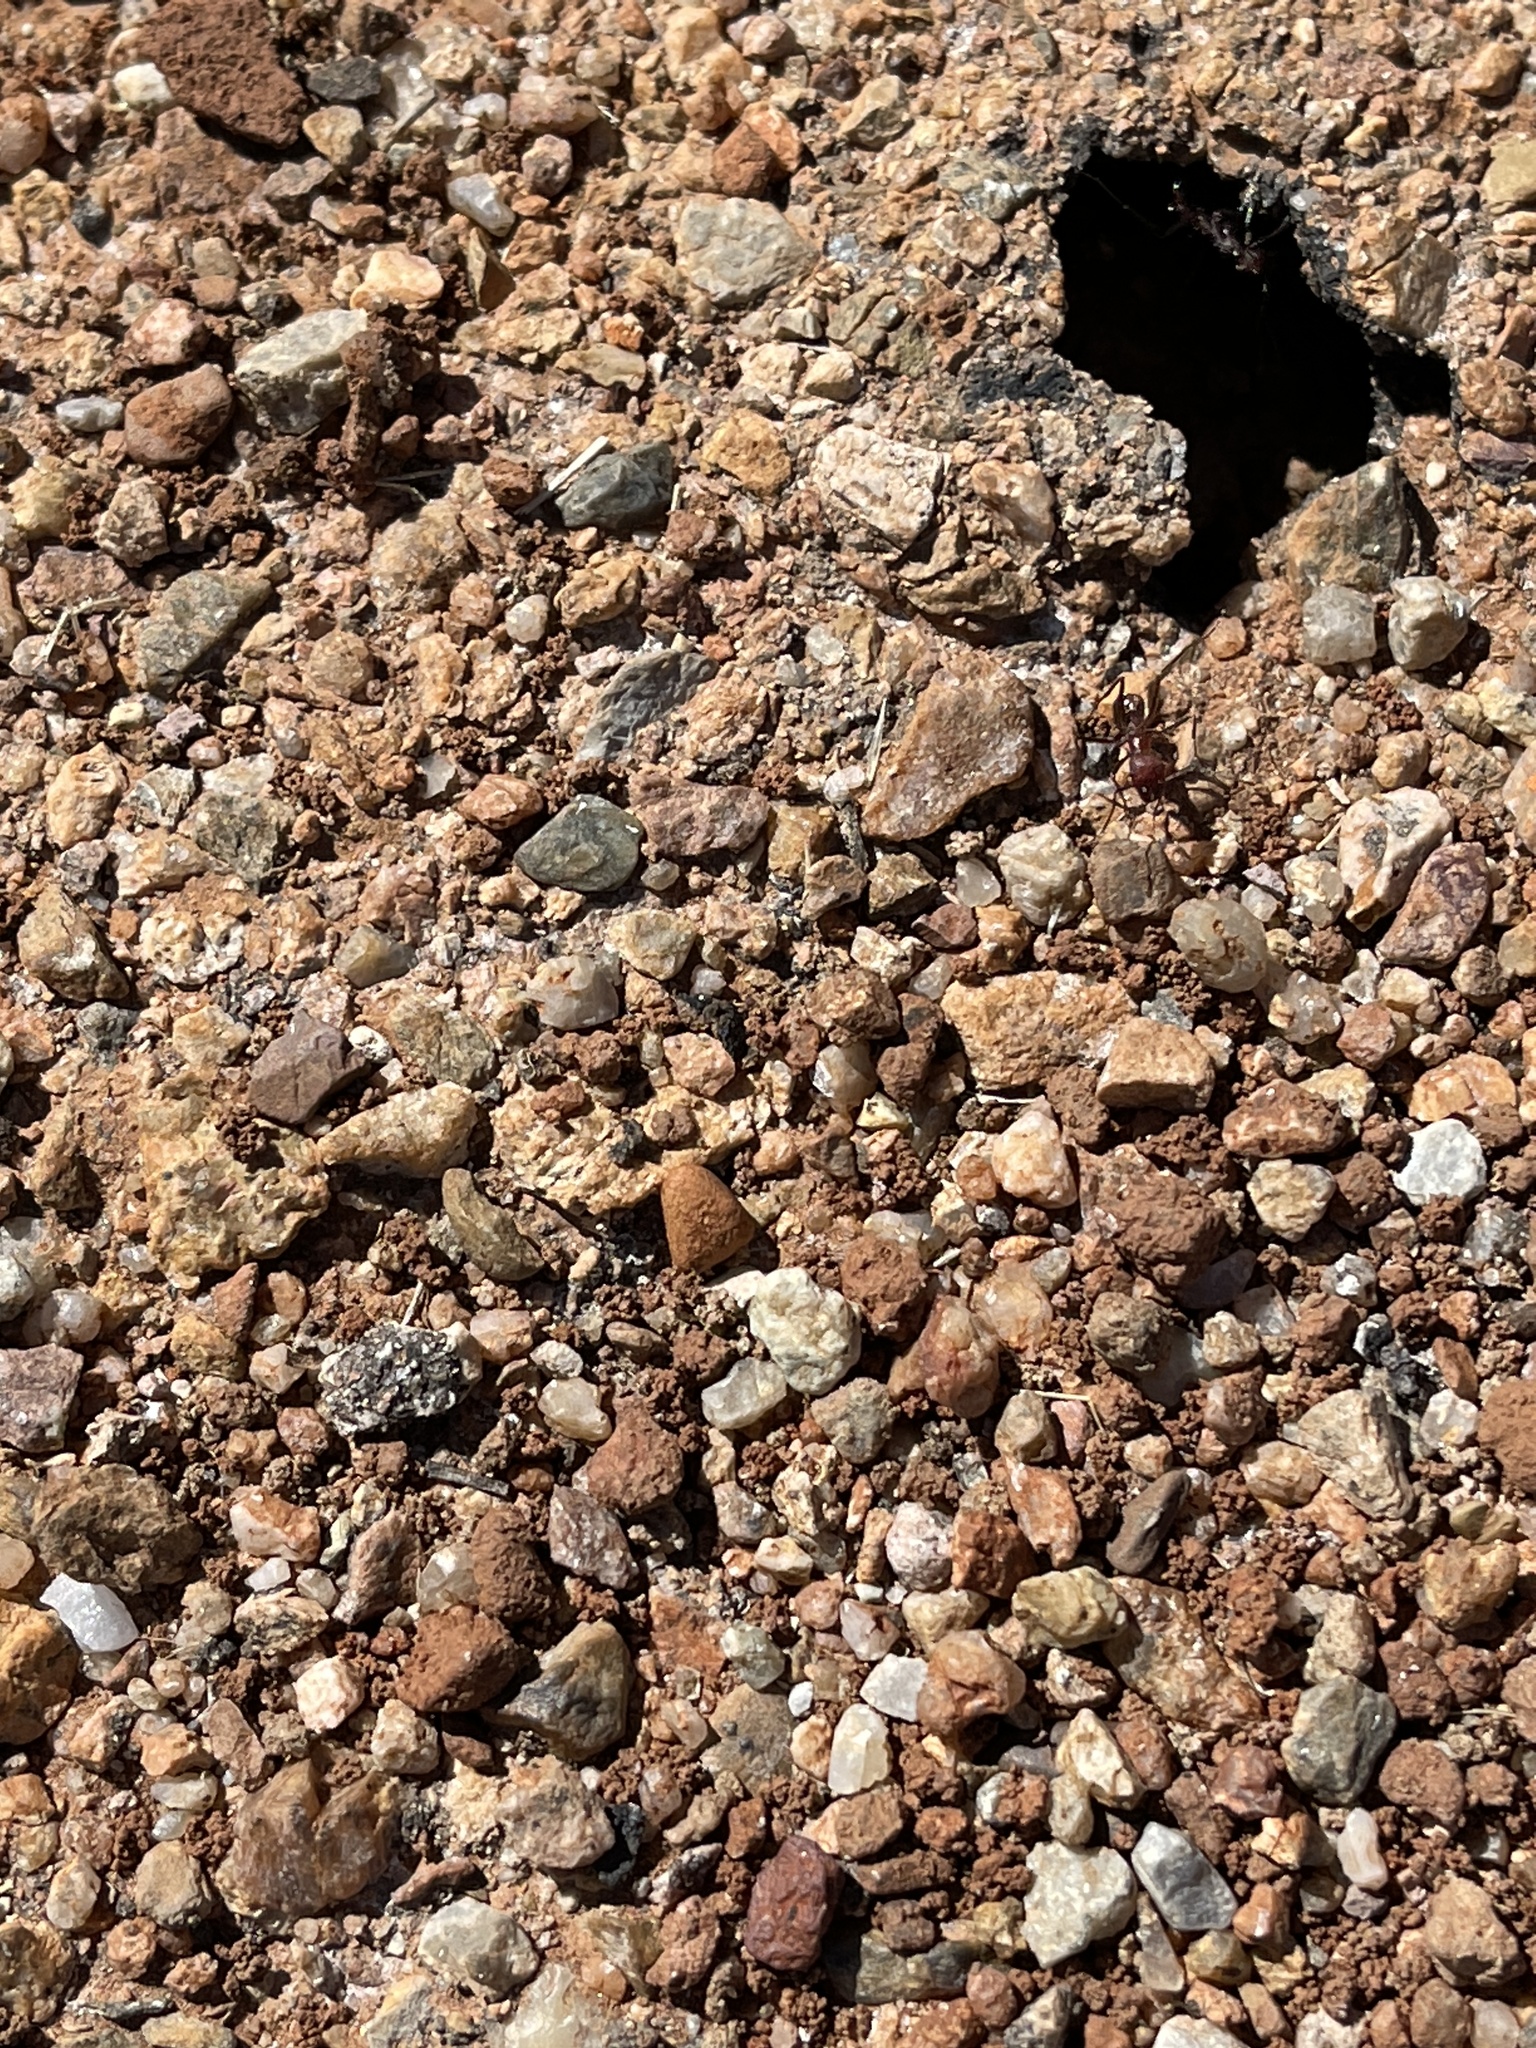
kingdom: Animalia
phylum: Arthropoda
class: Insecta
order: Hymenoptera
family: Formicidae
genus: Novomessor
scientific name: Novomessor albisetosa
